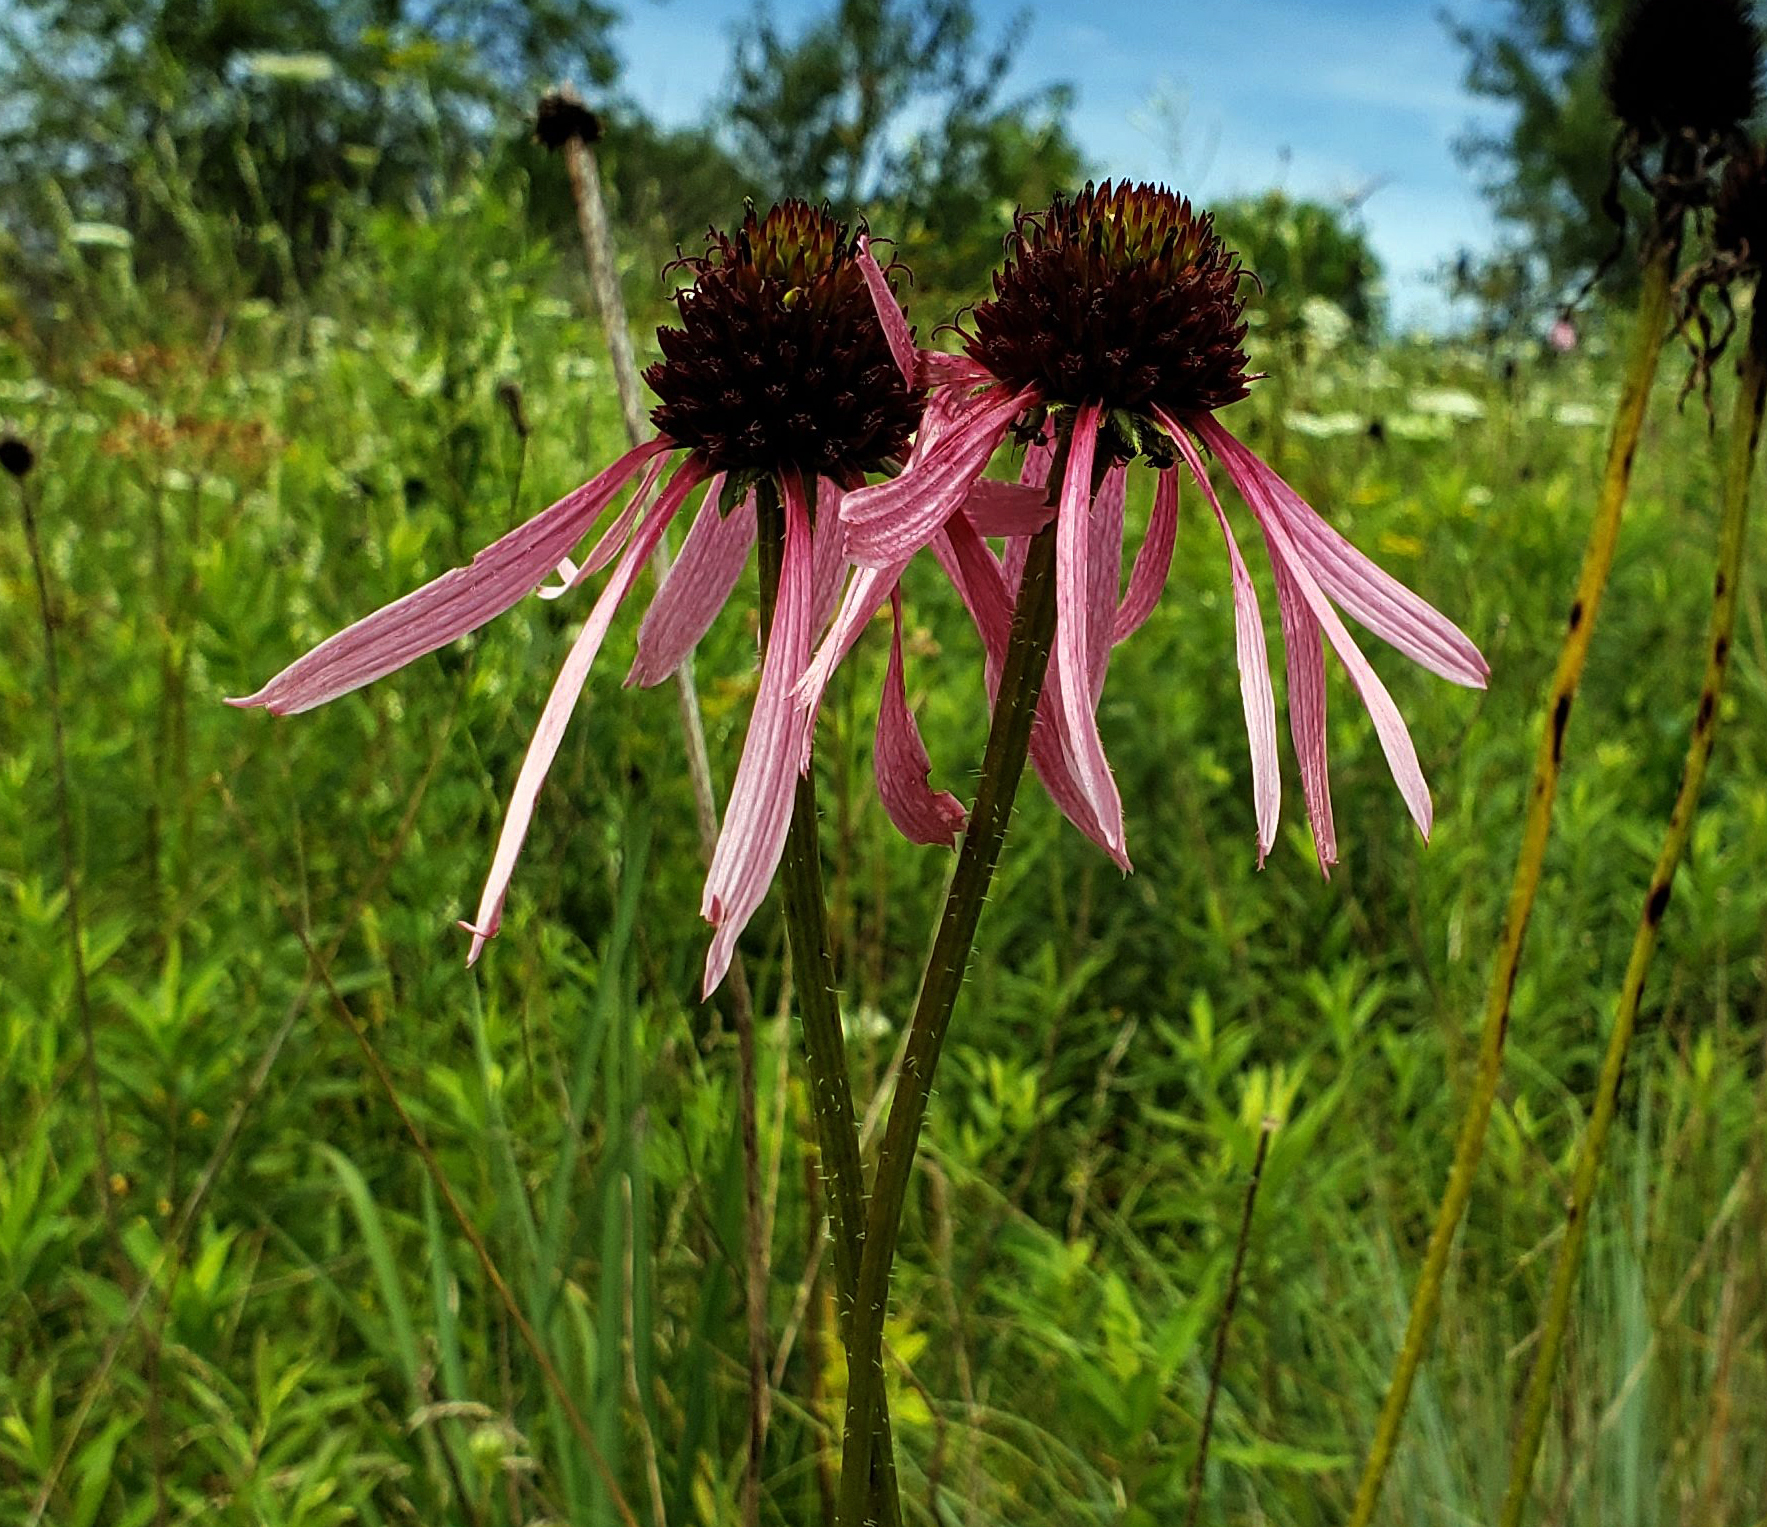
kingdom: Plantae
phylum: Tracheophyta
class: Magnoliopsida
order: Asterales
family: Asteraceae
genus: Echinacea
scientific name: Echinacea pallida
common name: Pale echinacea
